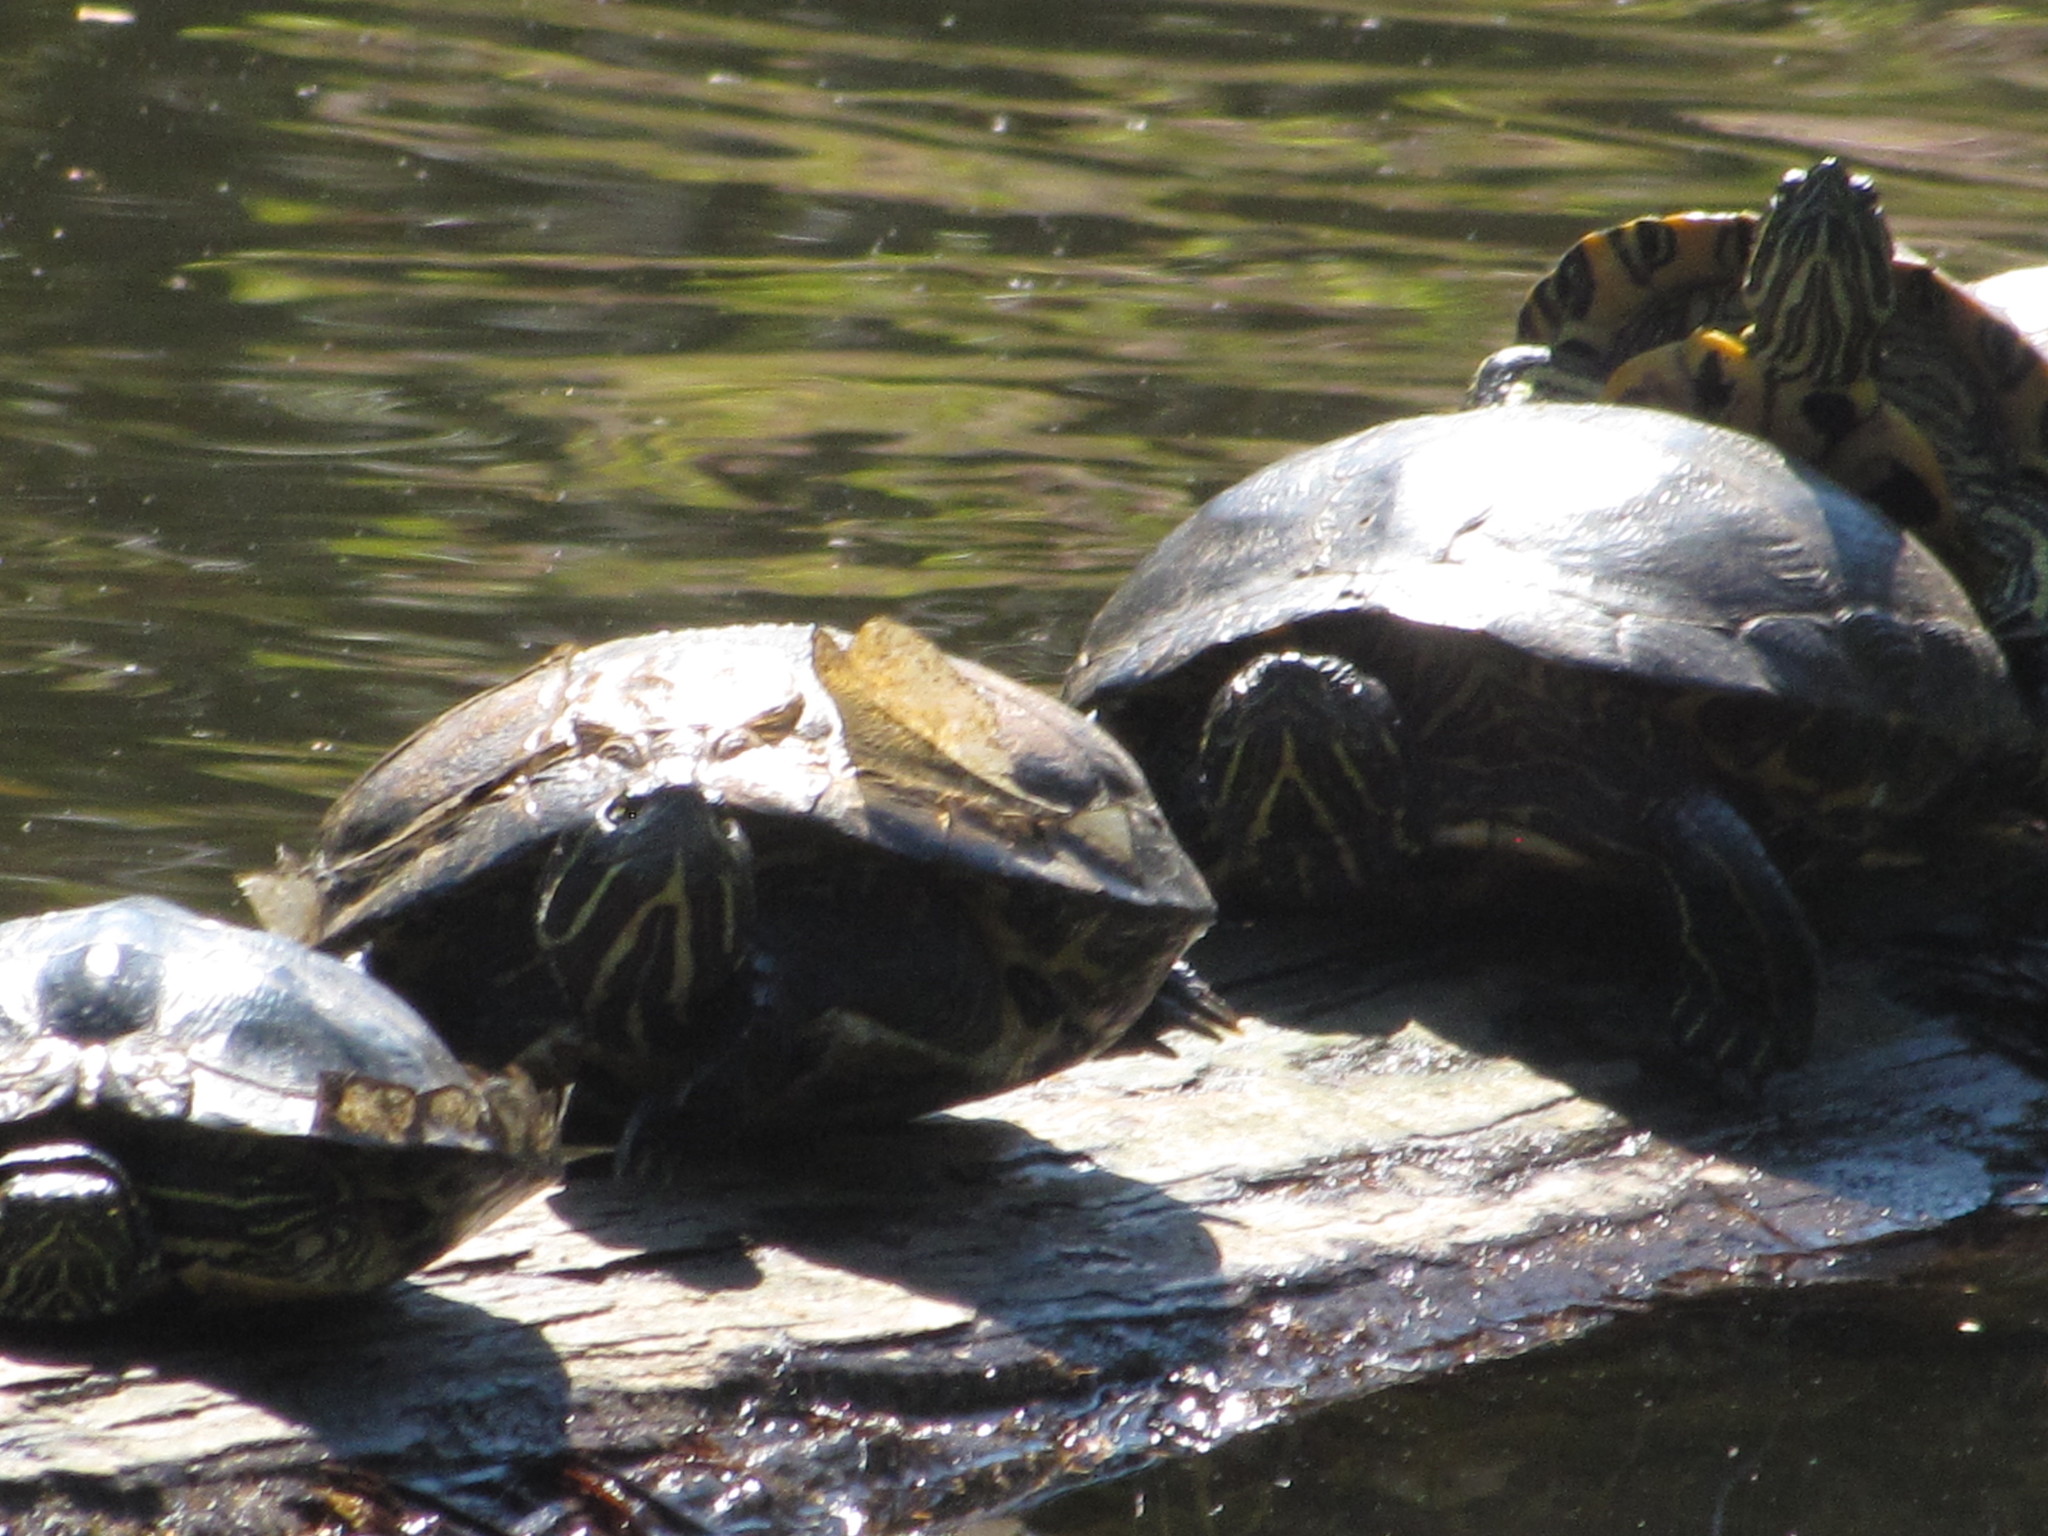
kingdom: Animalia
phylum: Chordata
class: Testudines
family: Emydidae
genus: Trachemys
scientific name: Trachemys scripta
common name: Slider
